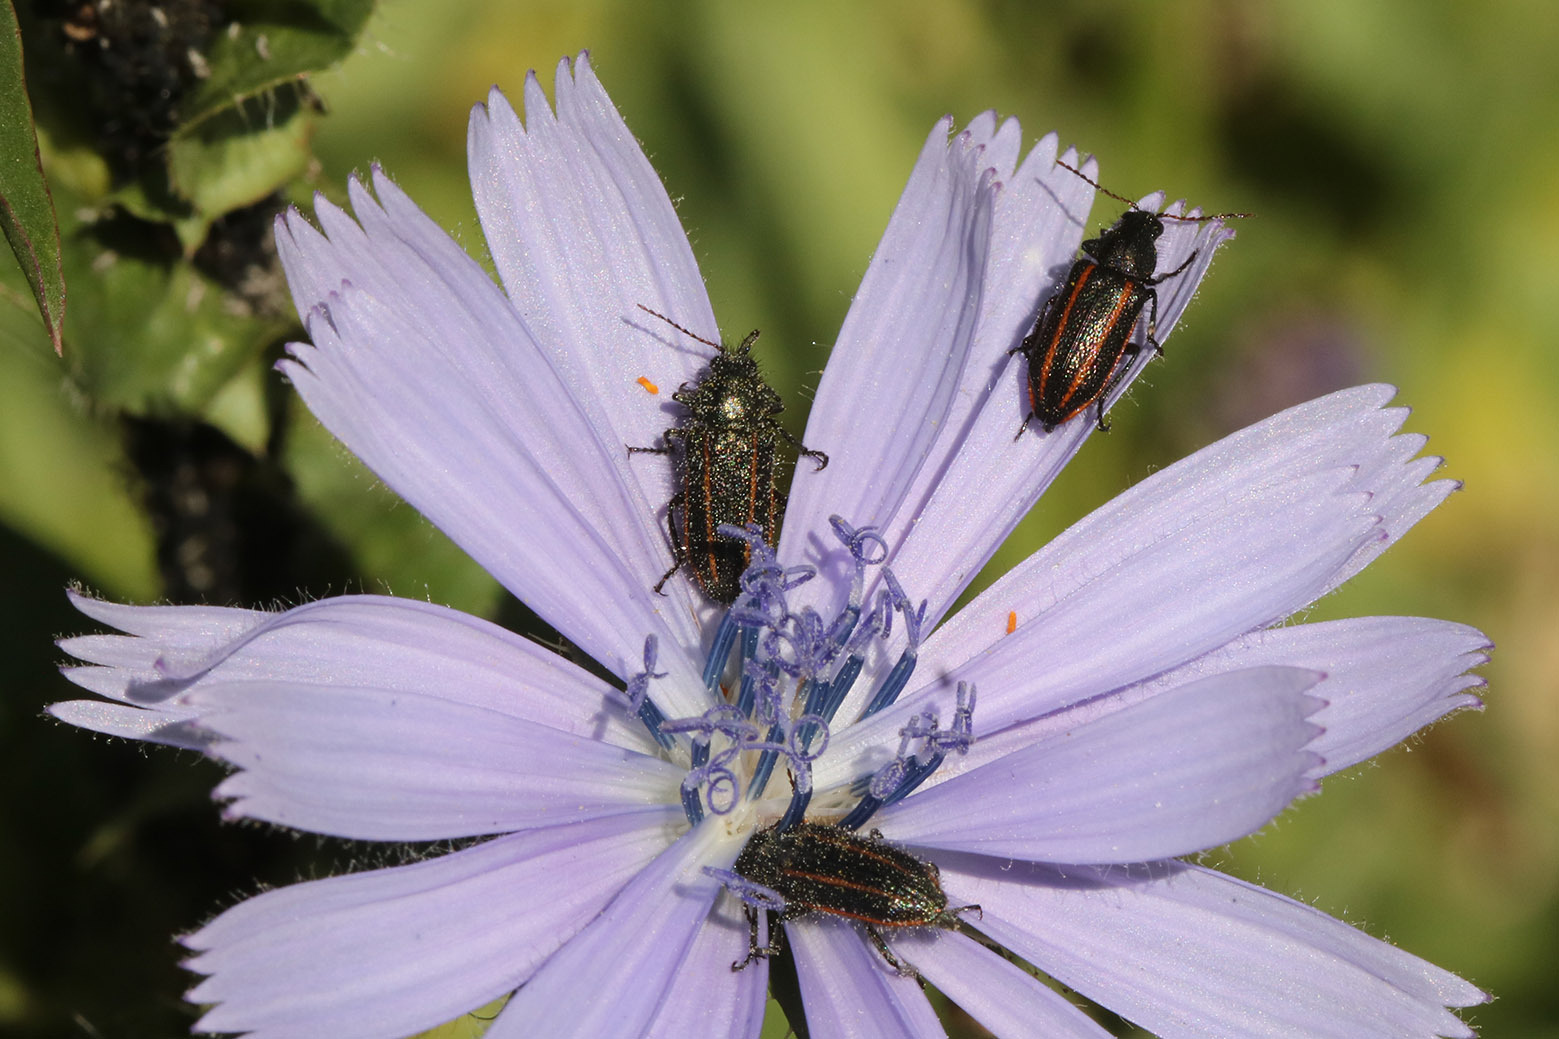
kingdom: Animalia
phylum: Arthropoda
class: Insecta
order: Coleoptera
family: Melyridae
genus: Astylus
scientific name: Astylus
